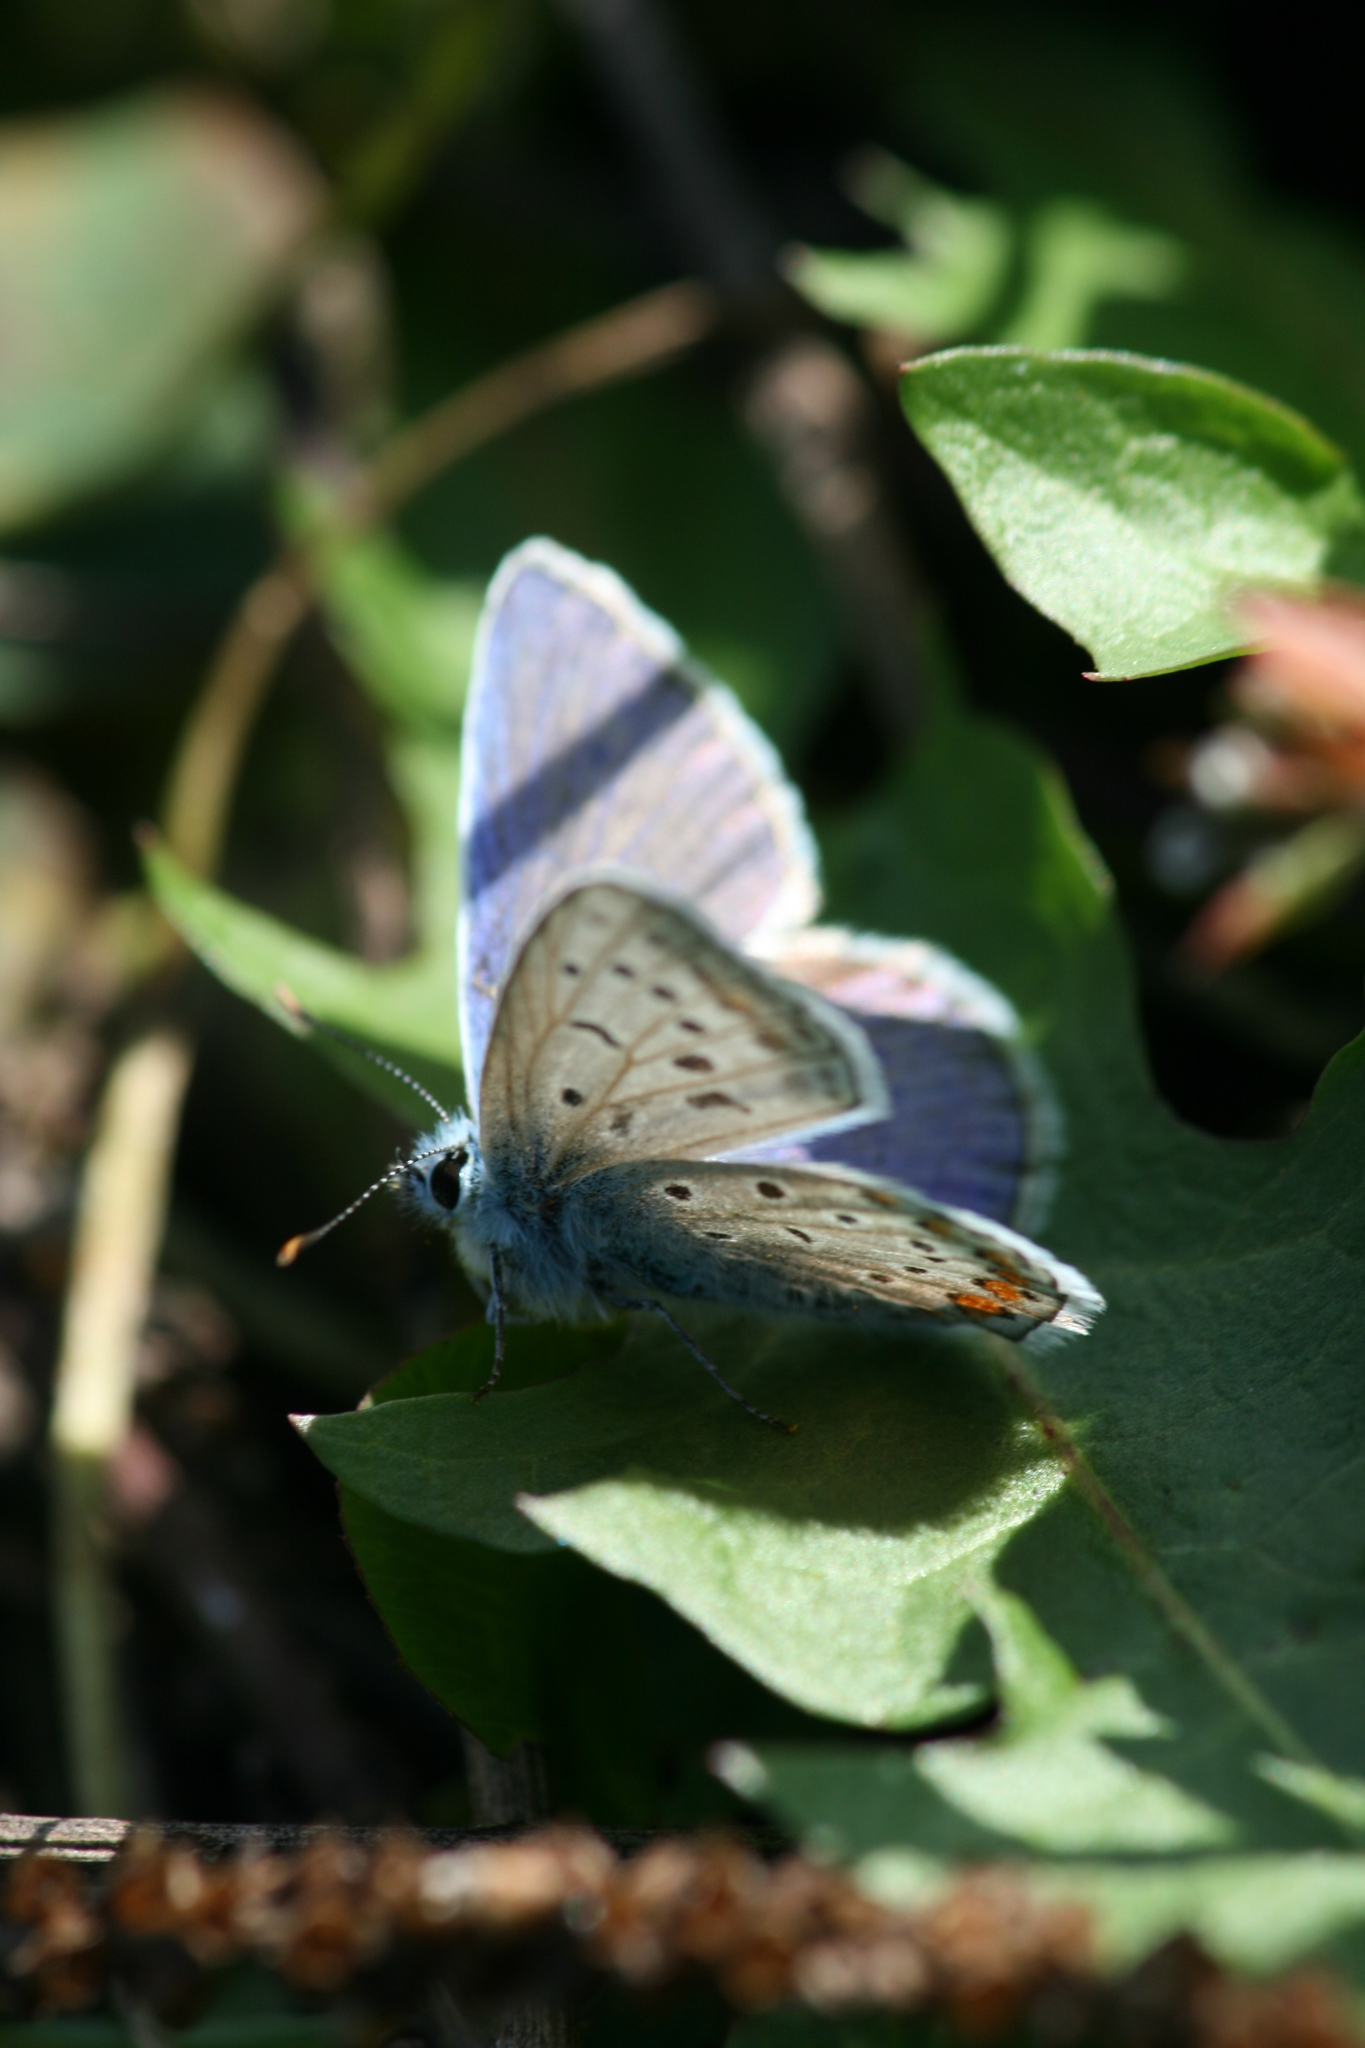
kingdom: Animalia
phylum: Arthropoda
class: Insecta
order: Lepidoptera
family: Lycaenidae
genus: Polyommatus
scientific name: Polyommatus icarus
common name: Common blue
